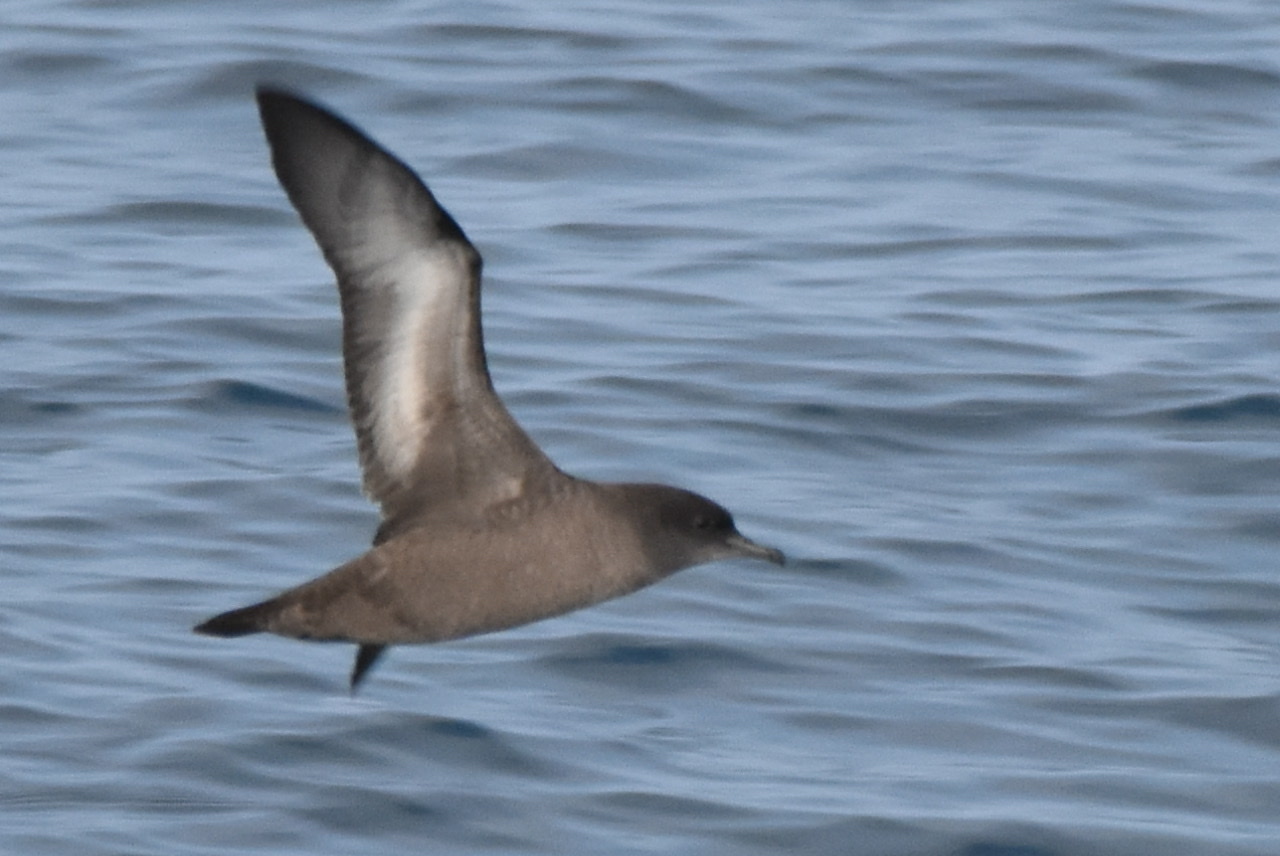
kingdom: Animalia
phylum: Chordata
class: Aves
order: Procellariiformes
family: Procellariidae
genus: Puffinus
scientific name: Puffinus tenuirostris
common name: Short-tailed shearwater
